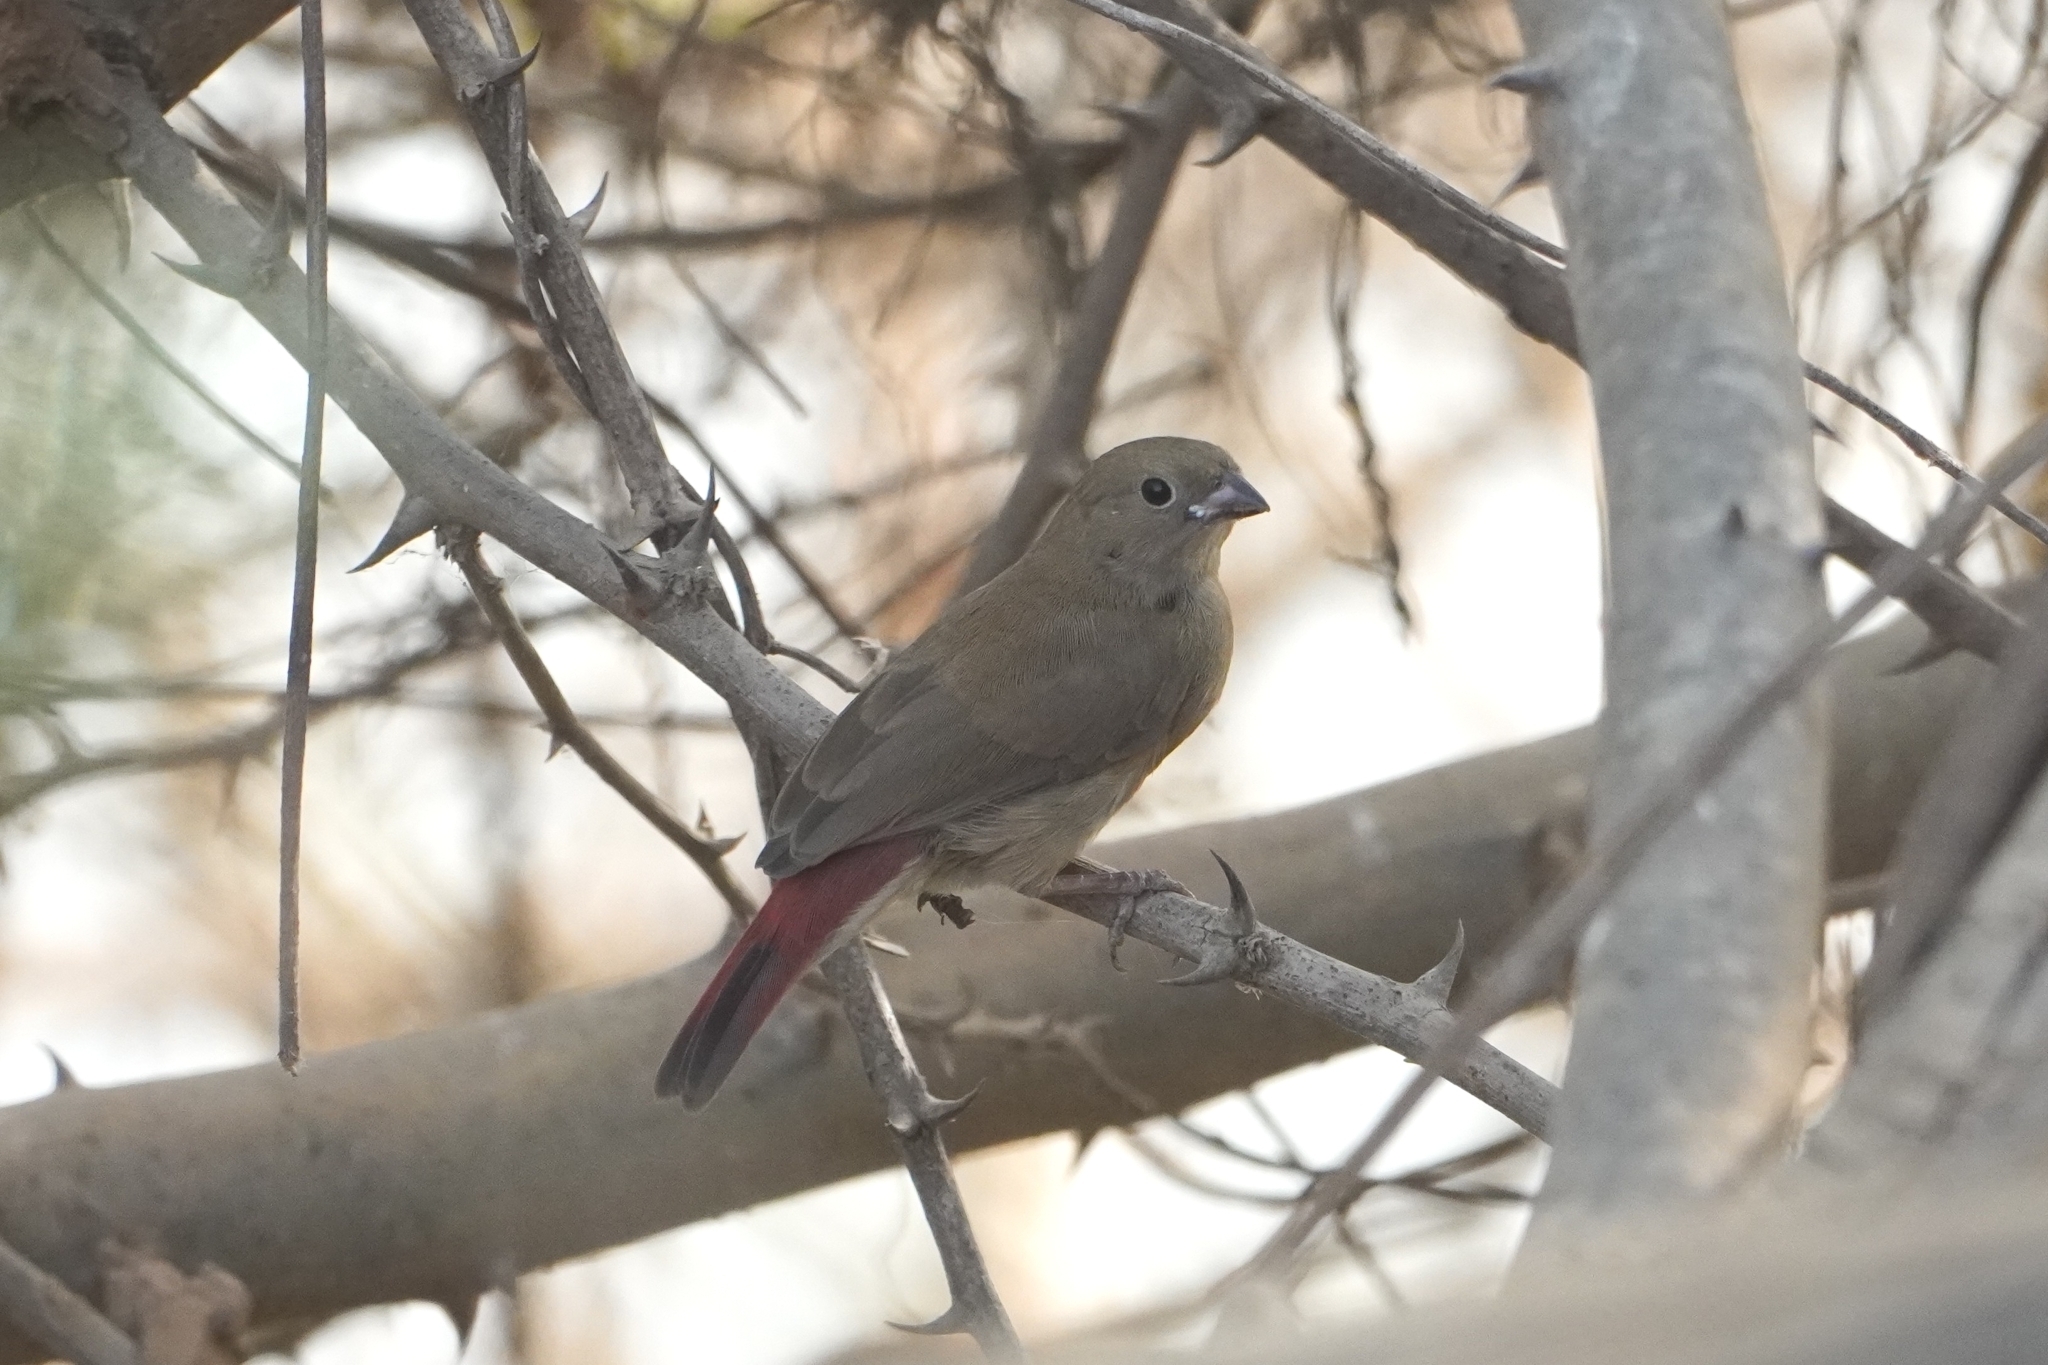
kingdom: Animalia
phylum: Chordata
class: Aves
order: Passeriformes
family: Estrildidae
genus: Lagonosticta
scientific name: Lagonosticta senegala
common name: Red-billed firefinch
